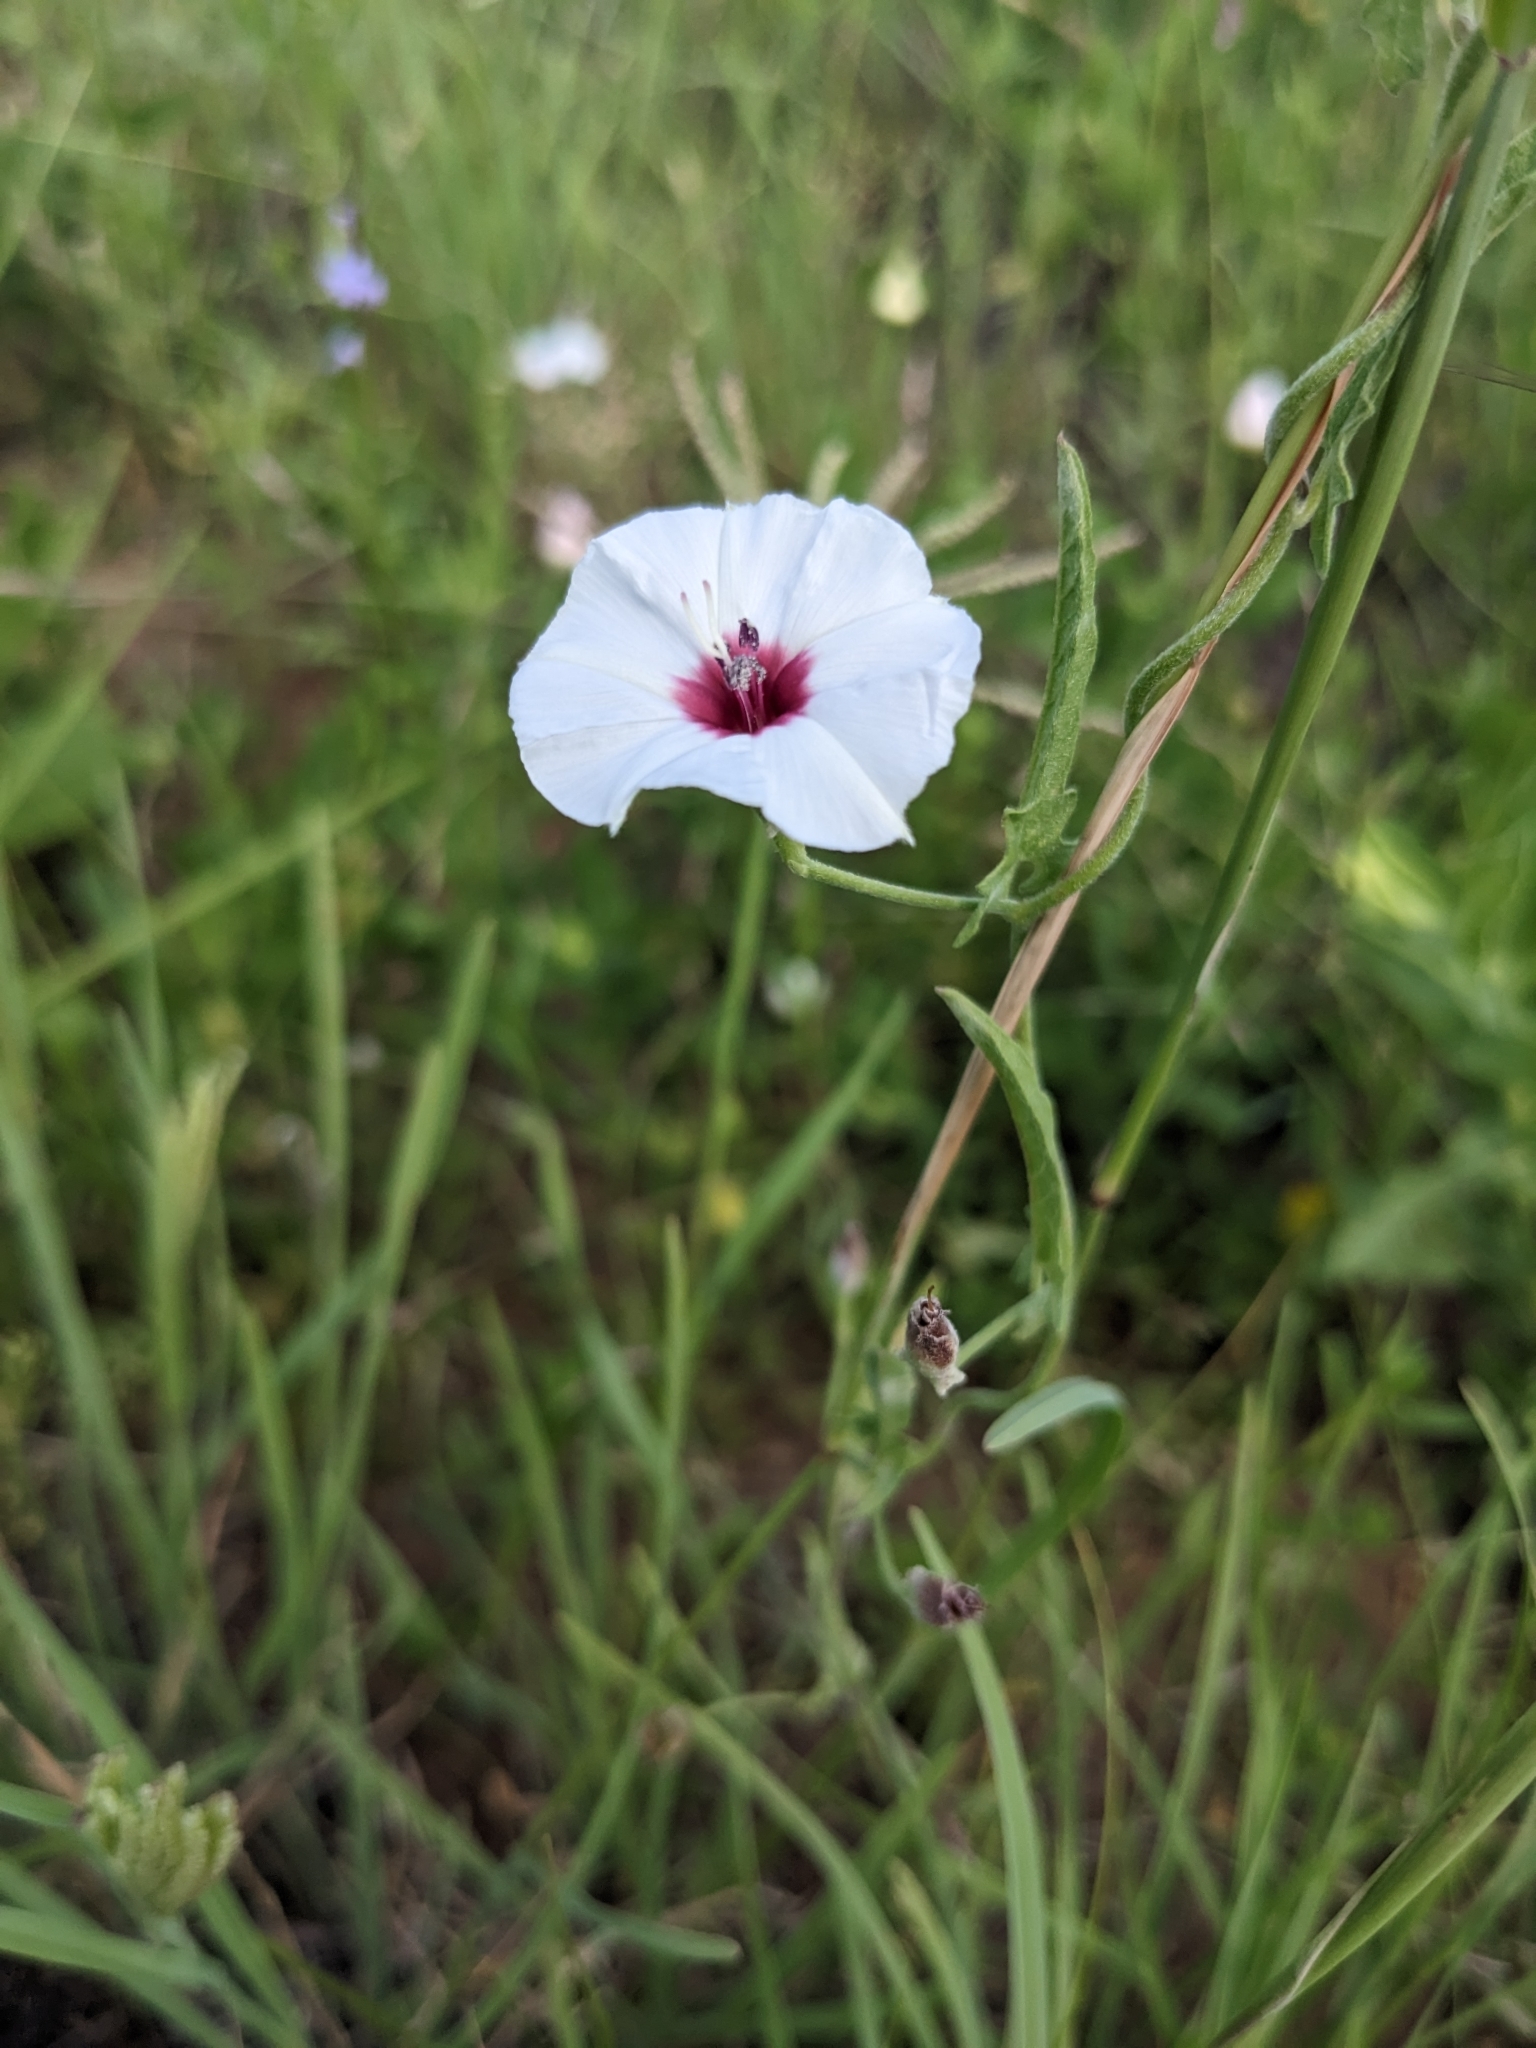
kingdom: Plantae
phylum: Tracheophyta
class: Magnoliopsida
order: Solanales
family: Convolvulaceae
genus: Convolvulus
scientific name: Convolvulus equitans
